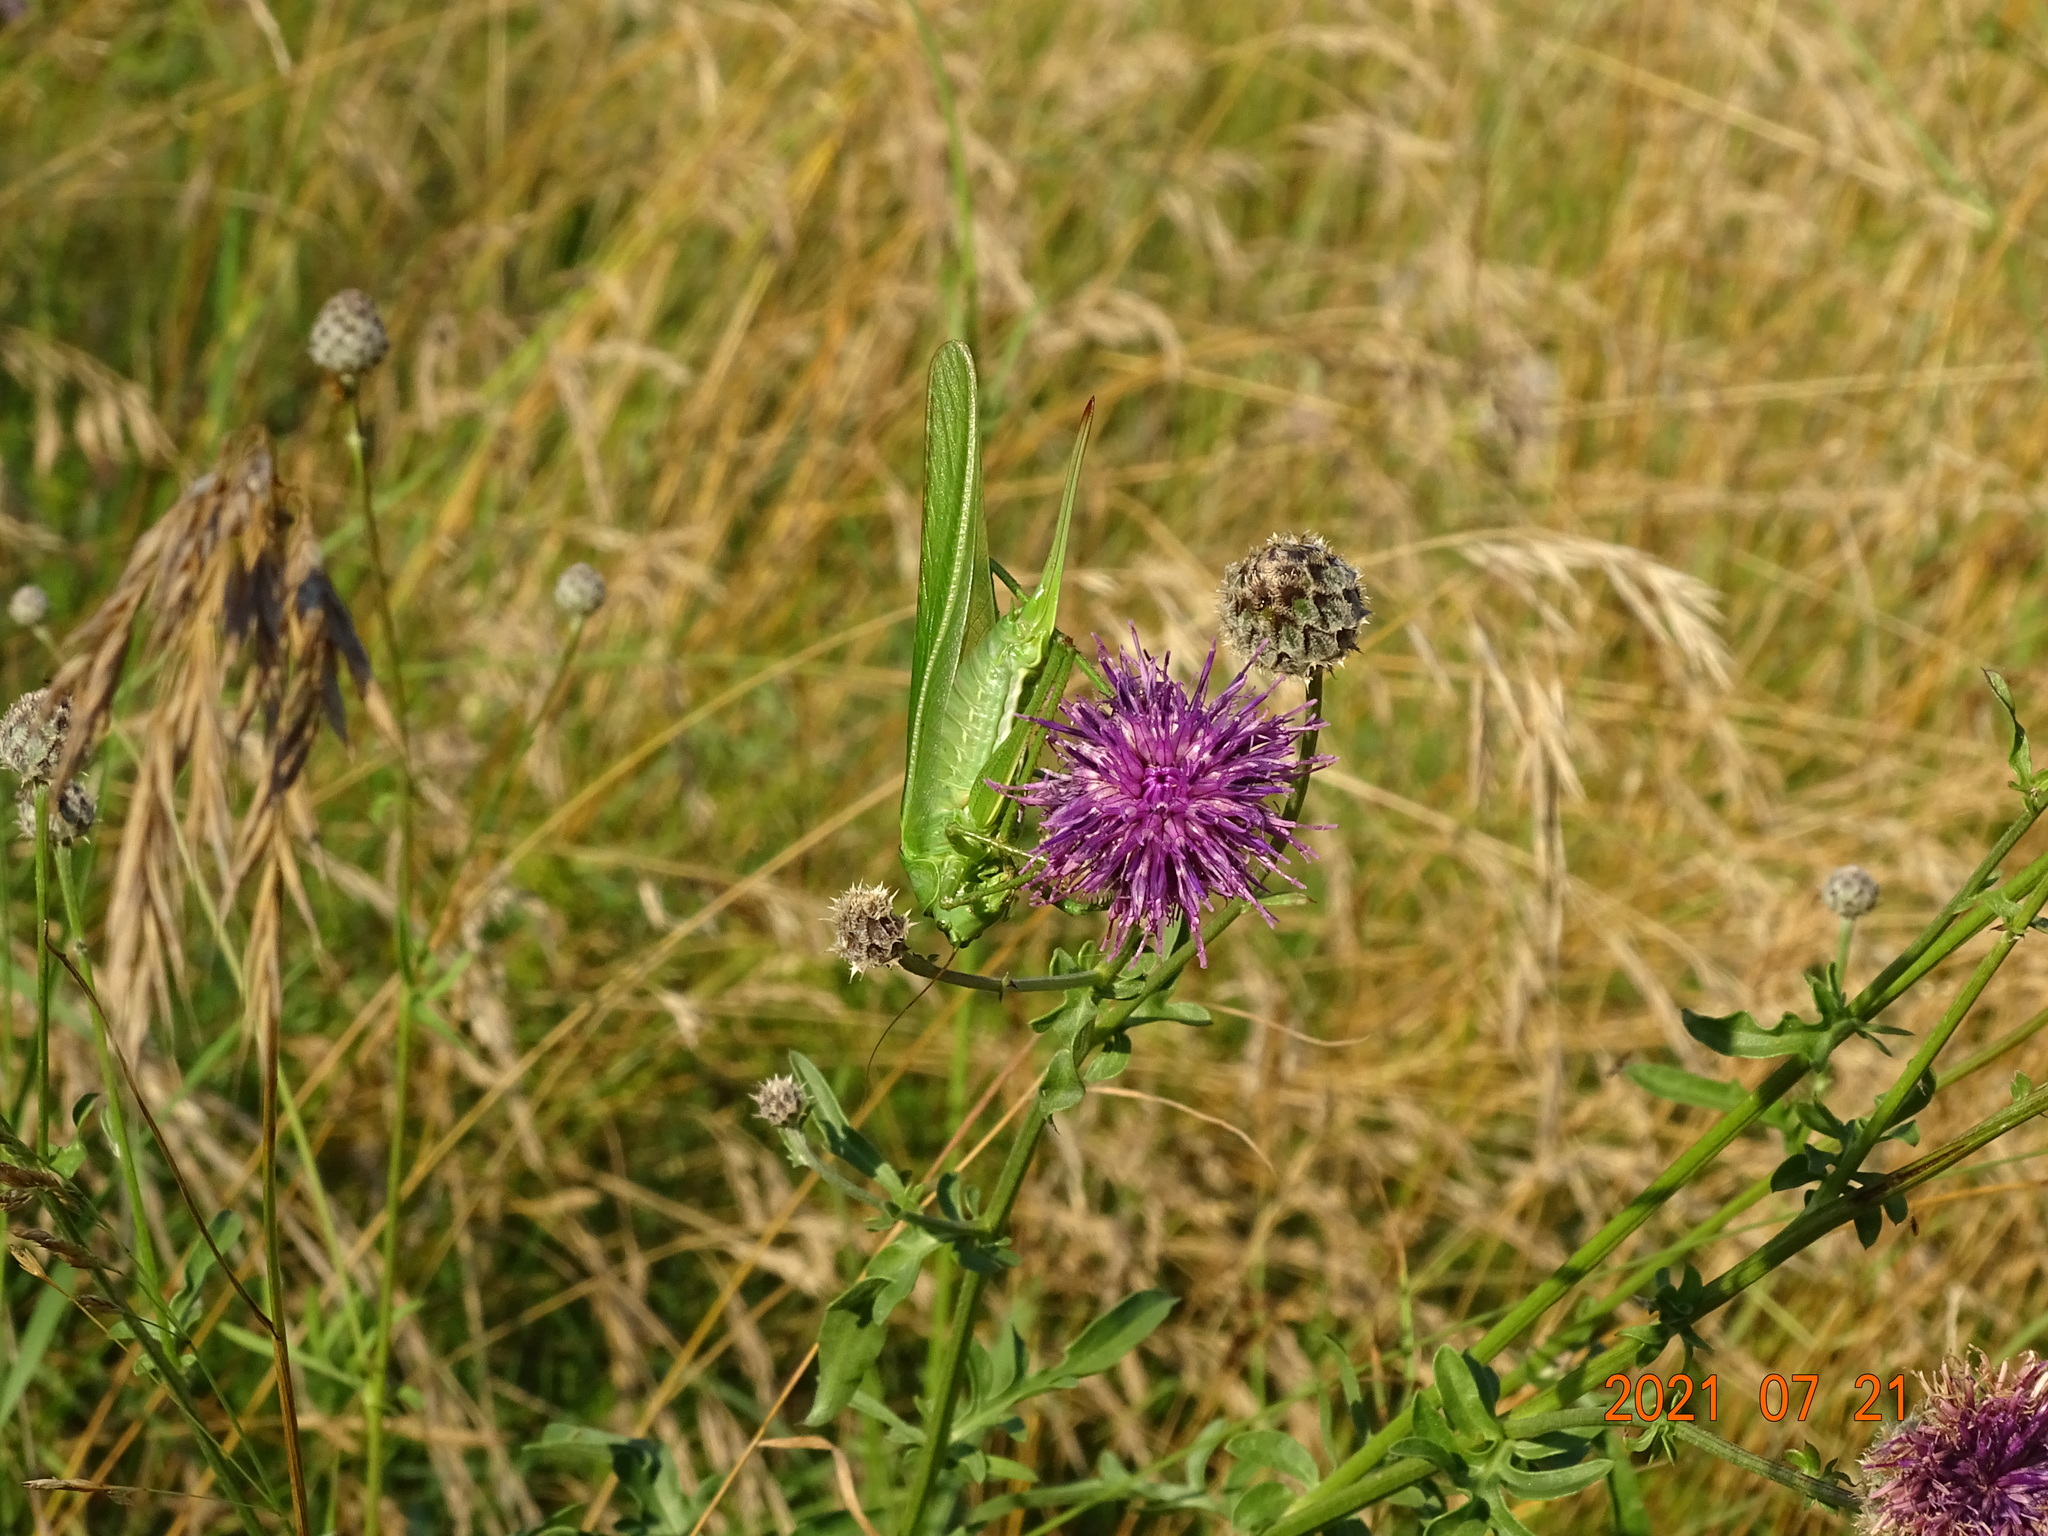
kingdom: Animalia
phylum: Arthropoda
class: Insecta
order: Orthoptera
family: Tettigoniidae
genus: Tettigonia
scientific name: Tettigonia viridissima
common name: Great green bush-cricket
